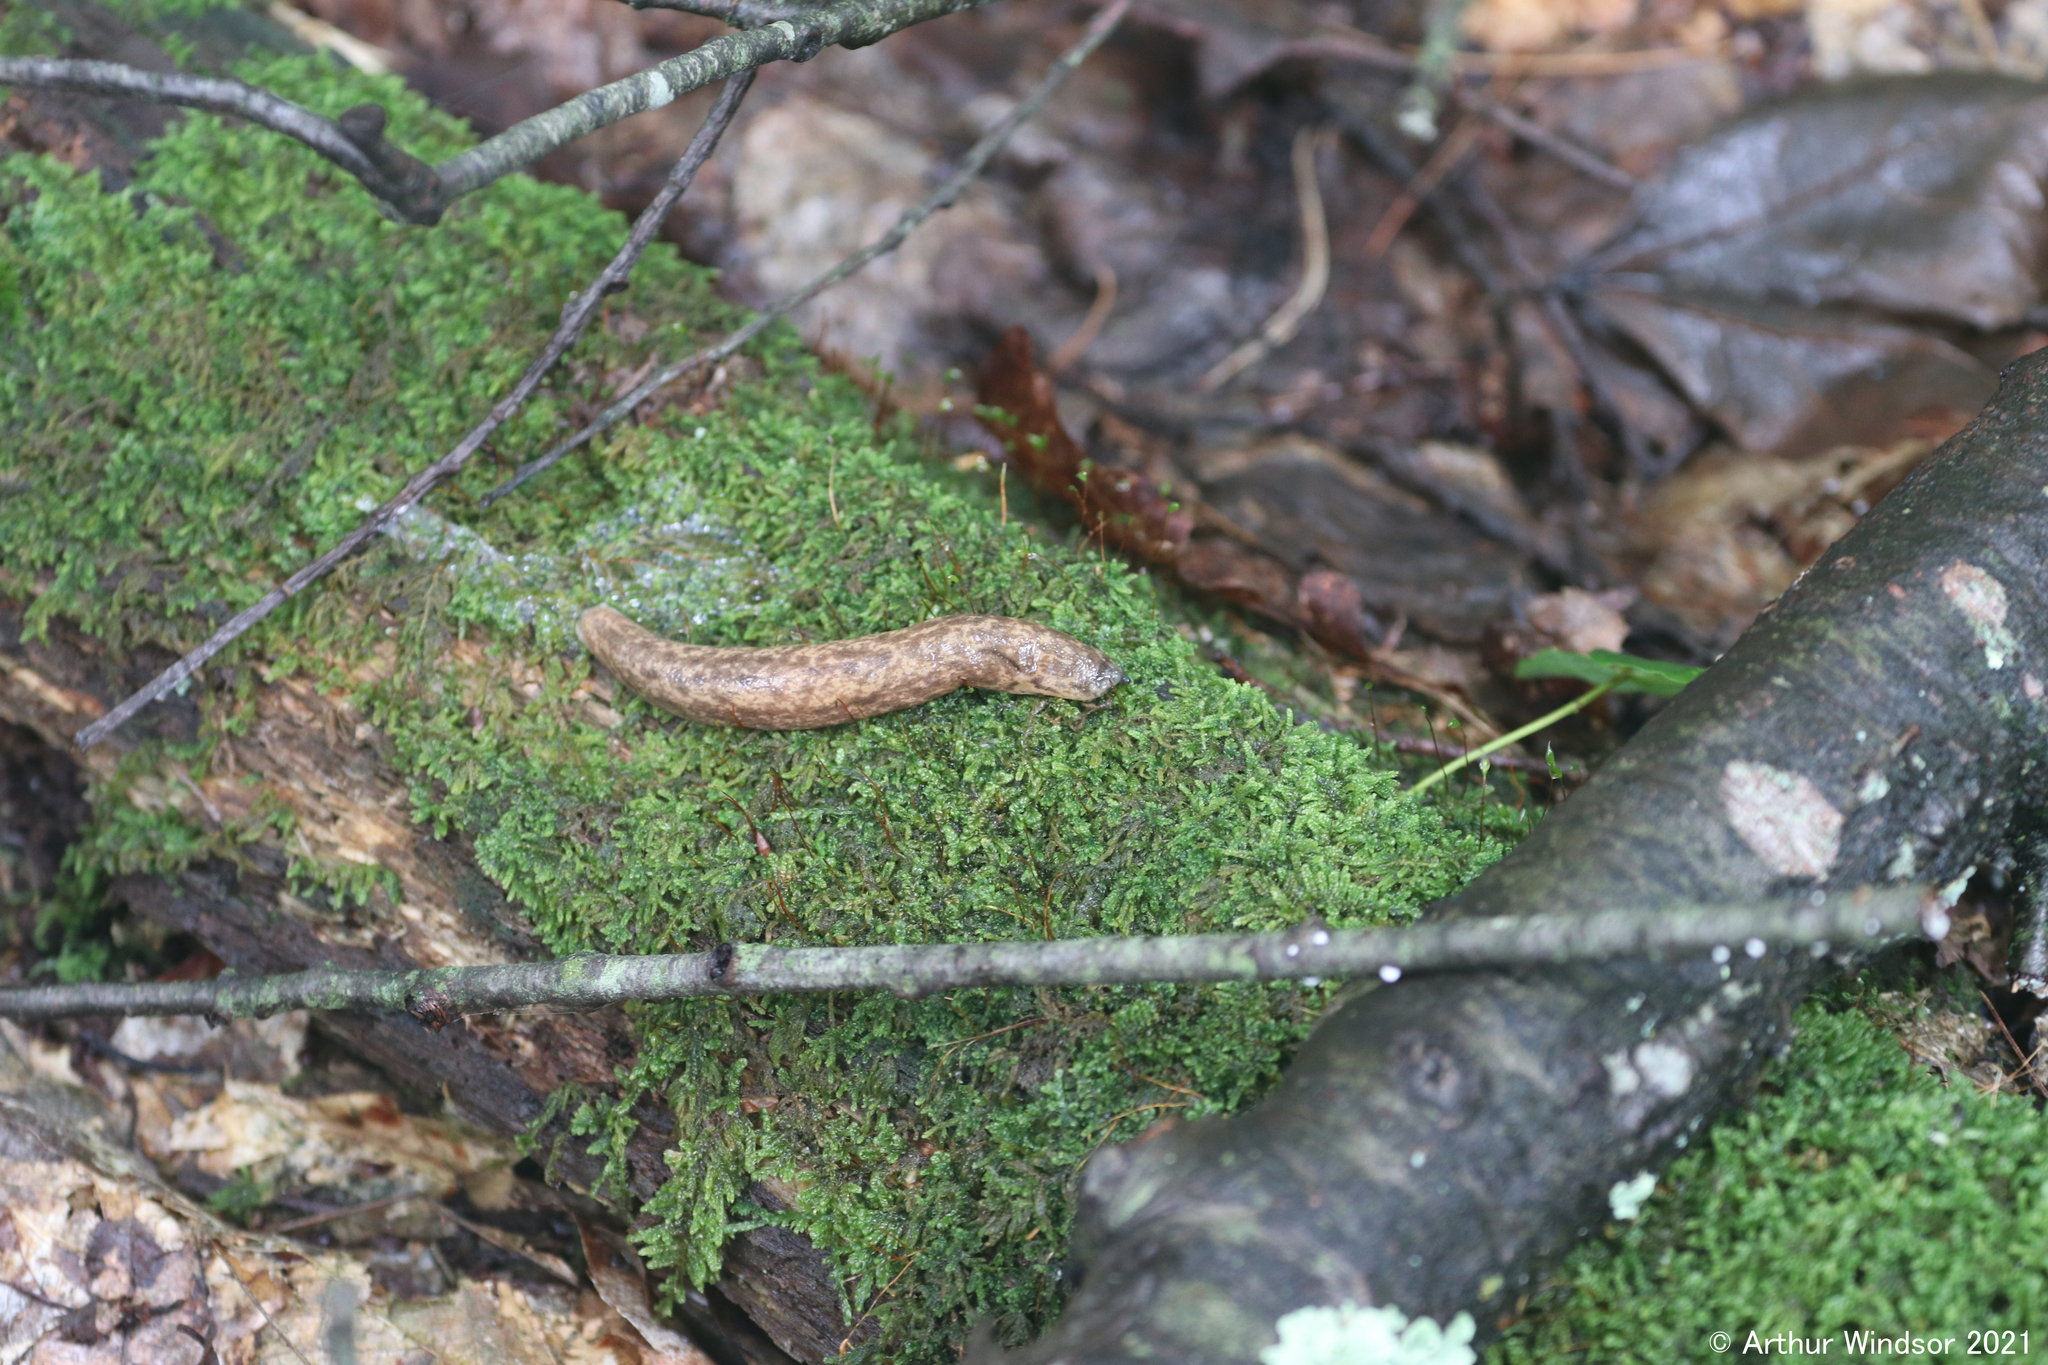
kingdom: Animalia
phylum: Mollusca
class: Gastropoda
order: Stylommatophora
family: Philomycidae
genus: Philomycus
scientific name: Philomycus flexuolaris
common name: Winding mantleslug
